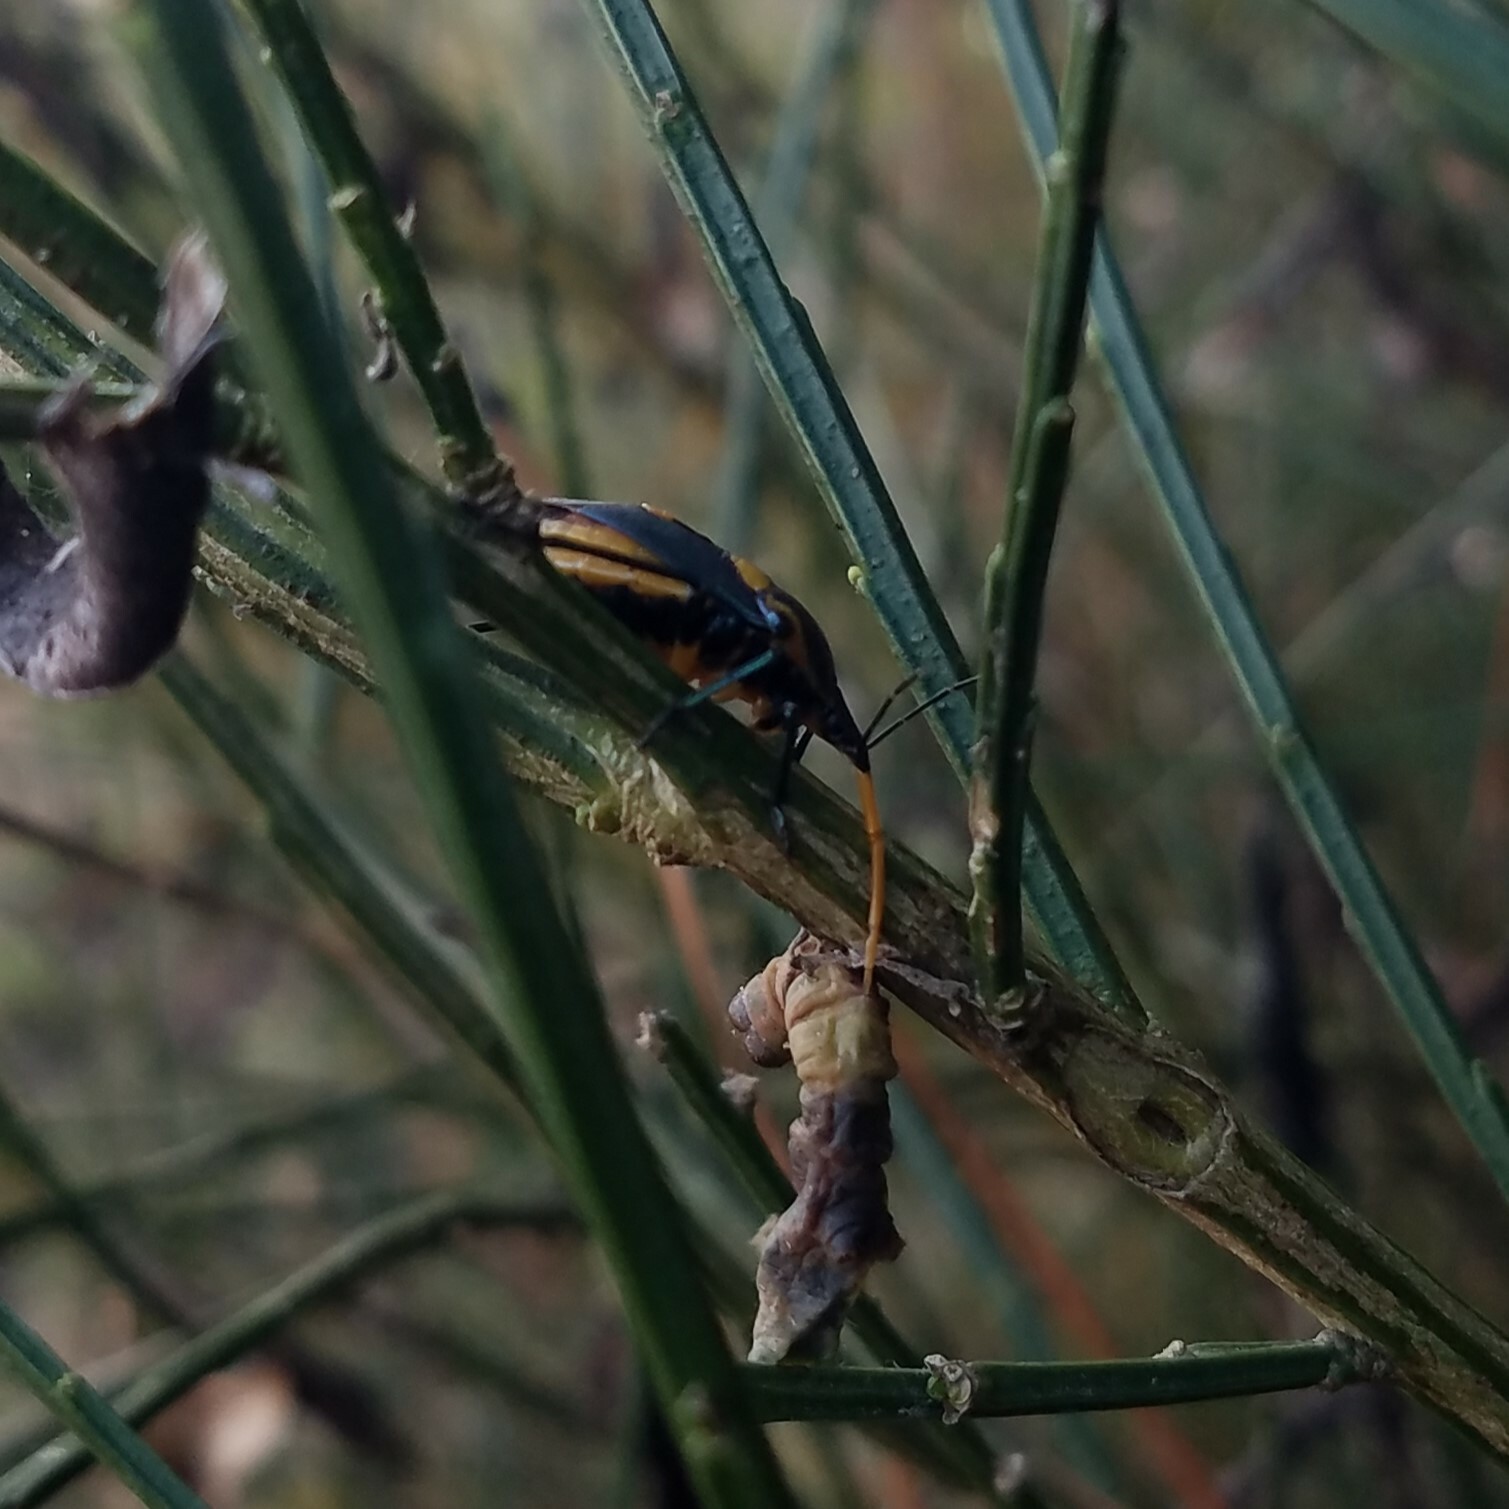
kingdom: Animalia
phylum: Arthropoda
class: Insecta
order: Hemiptera
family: Pentatomidae
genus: Euthyrhynchus
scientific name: Euthyrhynchus floridanus
